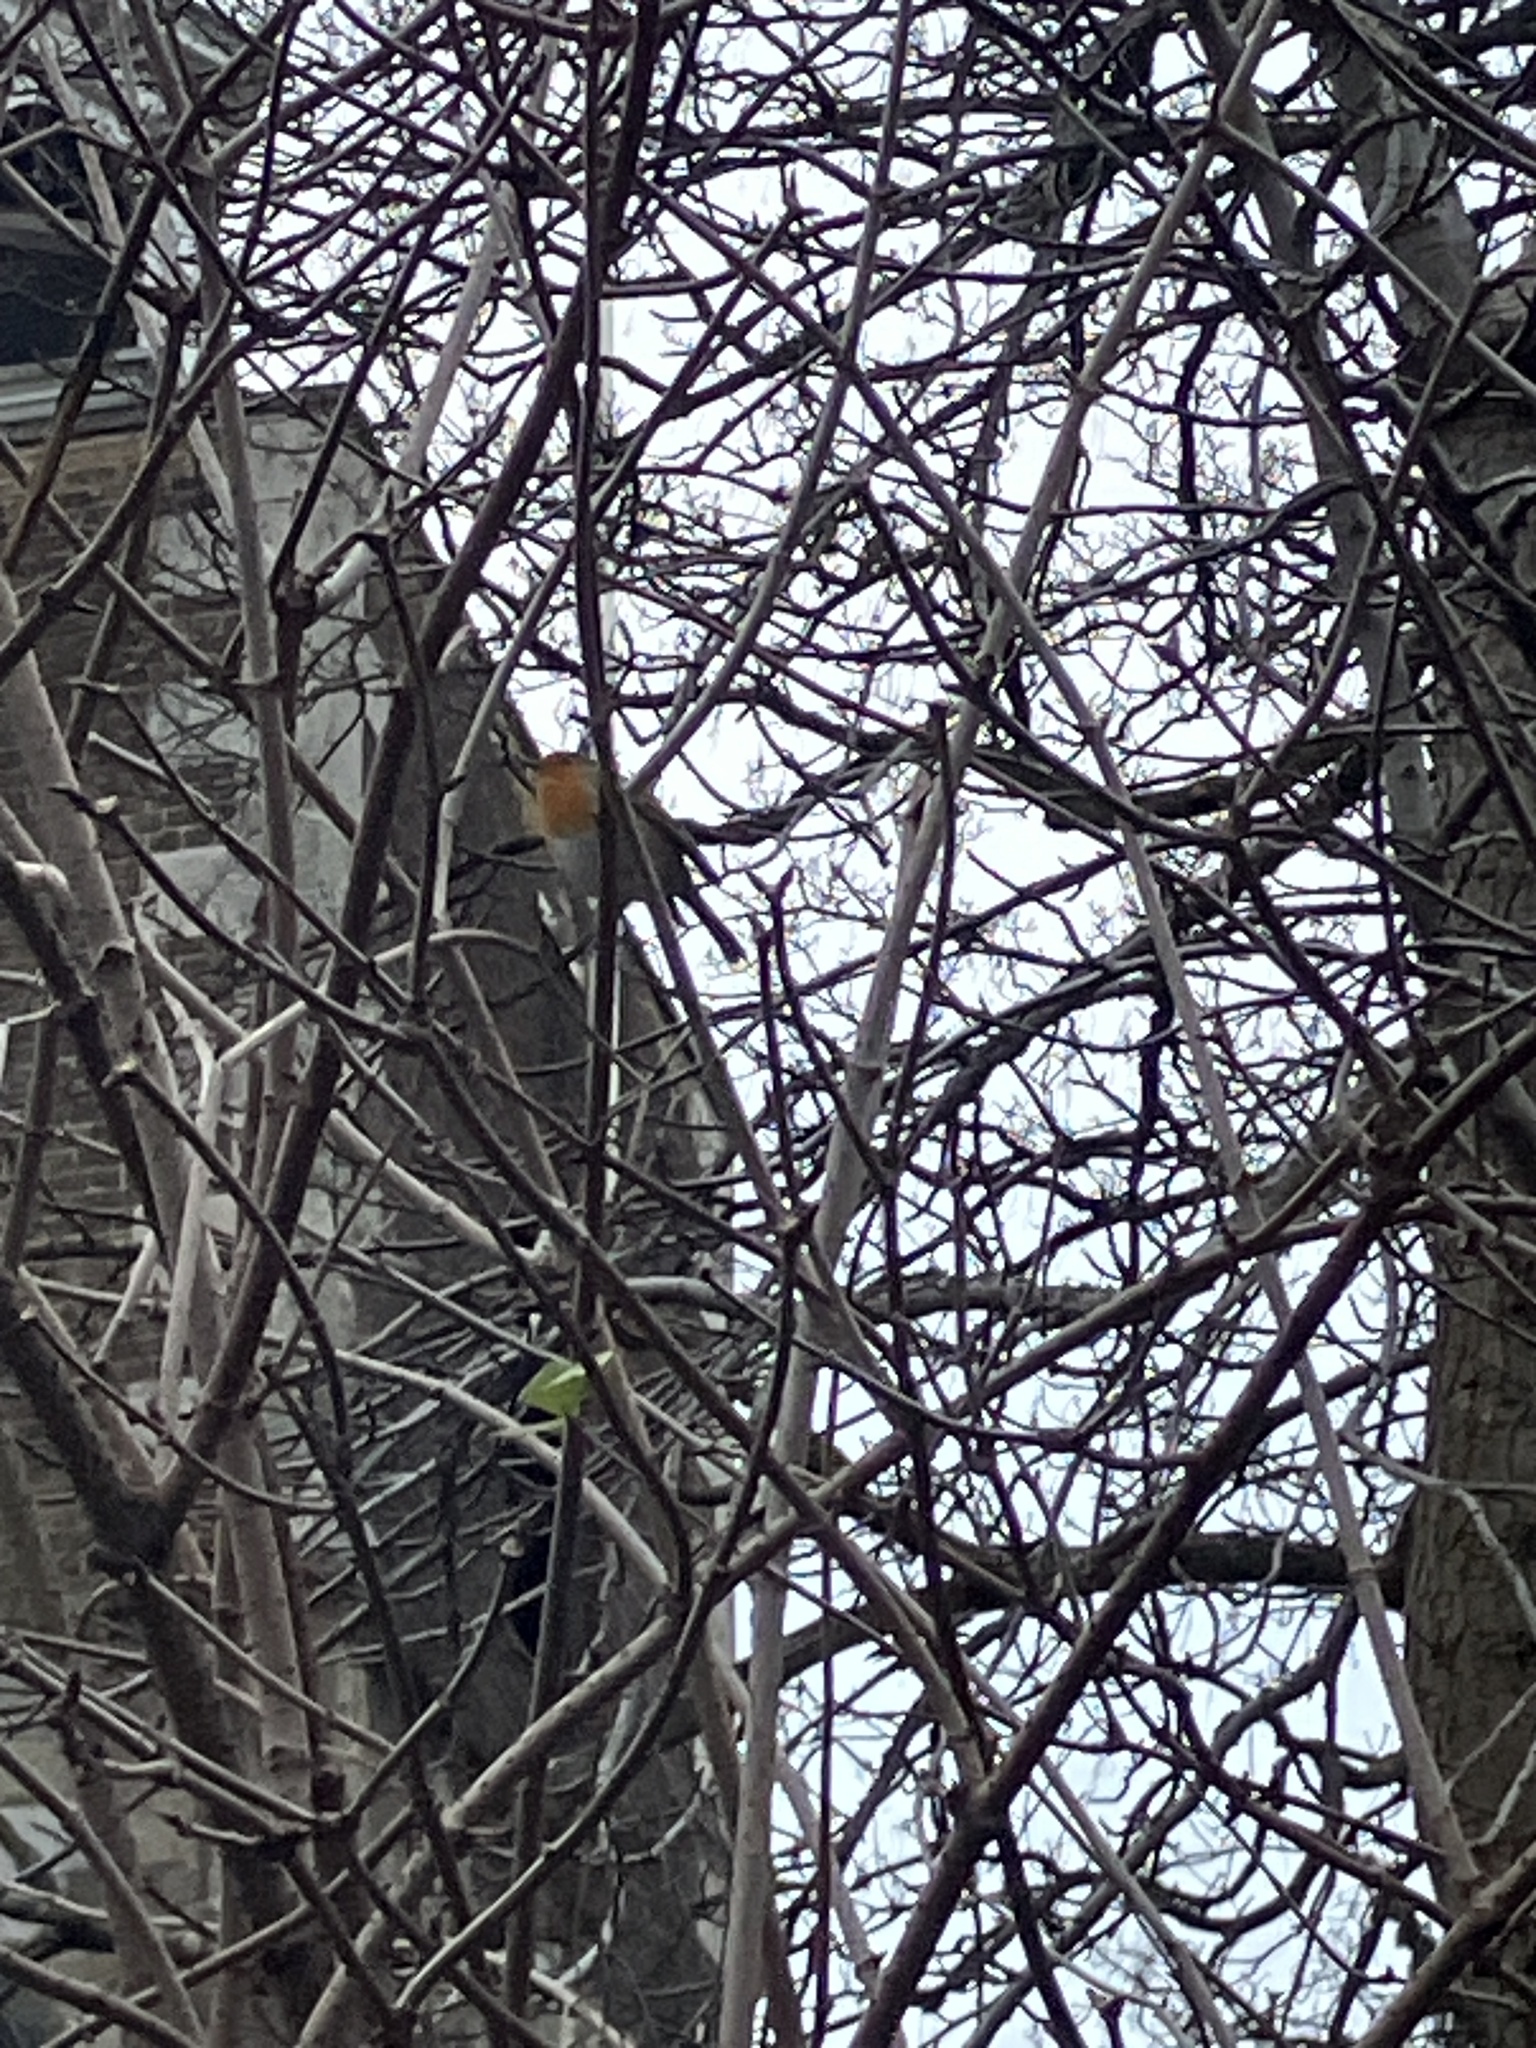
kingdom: Animalia
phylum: Chordata
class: Aves
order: Passeriformes
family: Muscicapidae
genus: Erithacus
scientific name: Erithacus rubecula
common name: European robin
